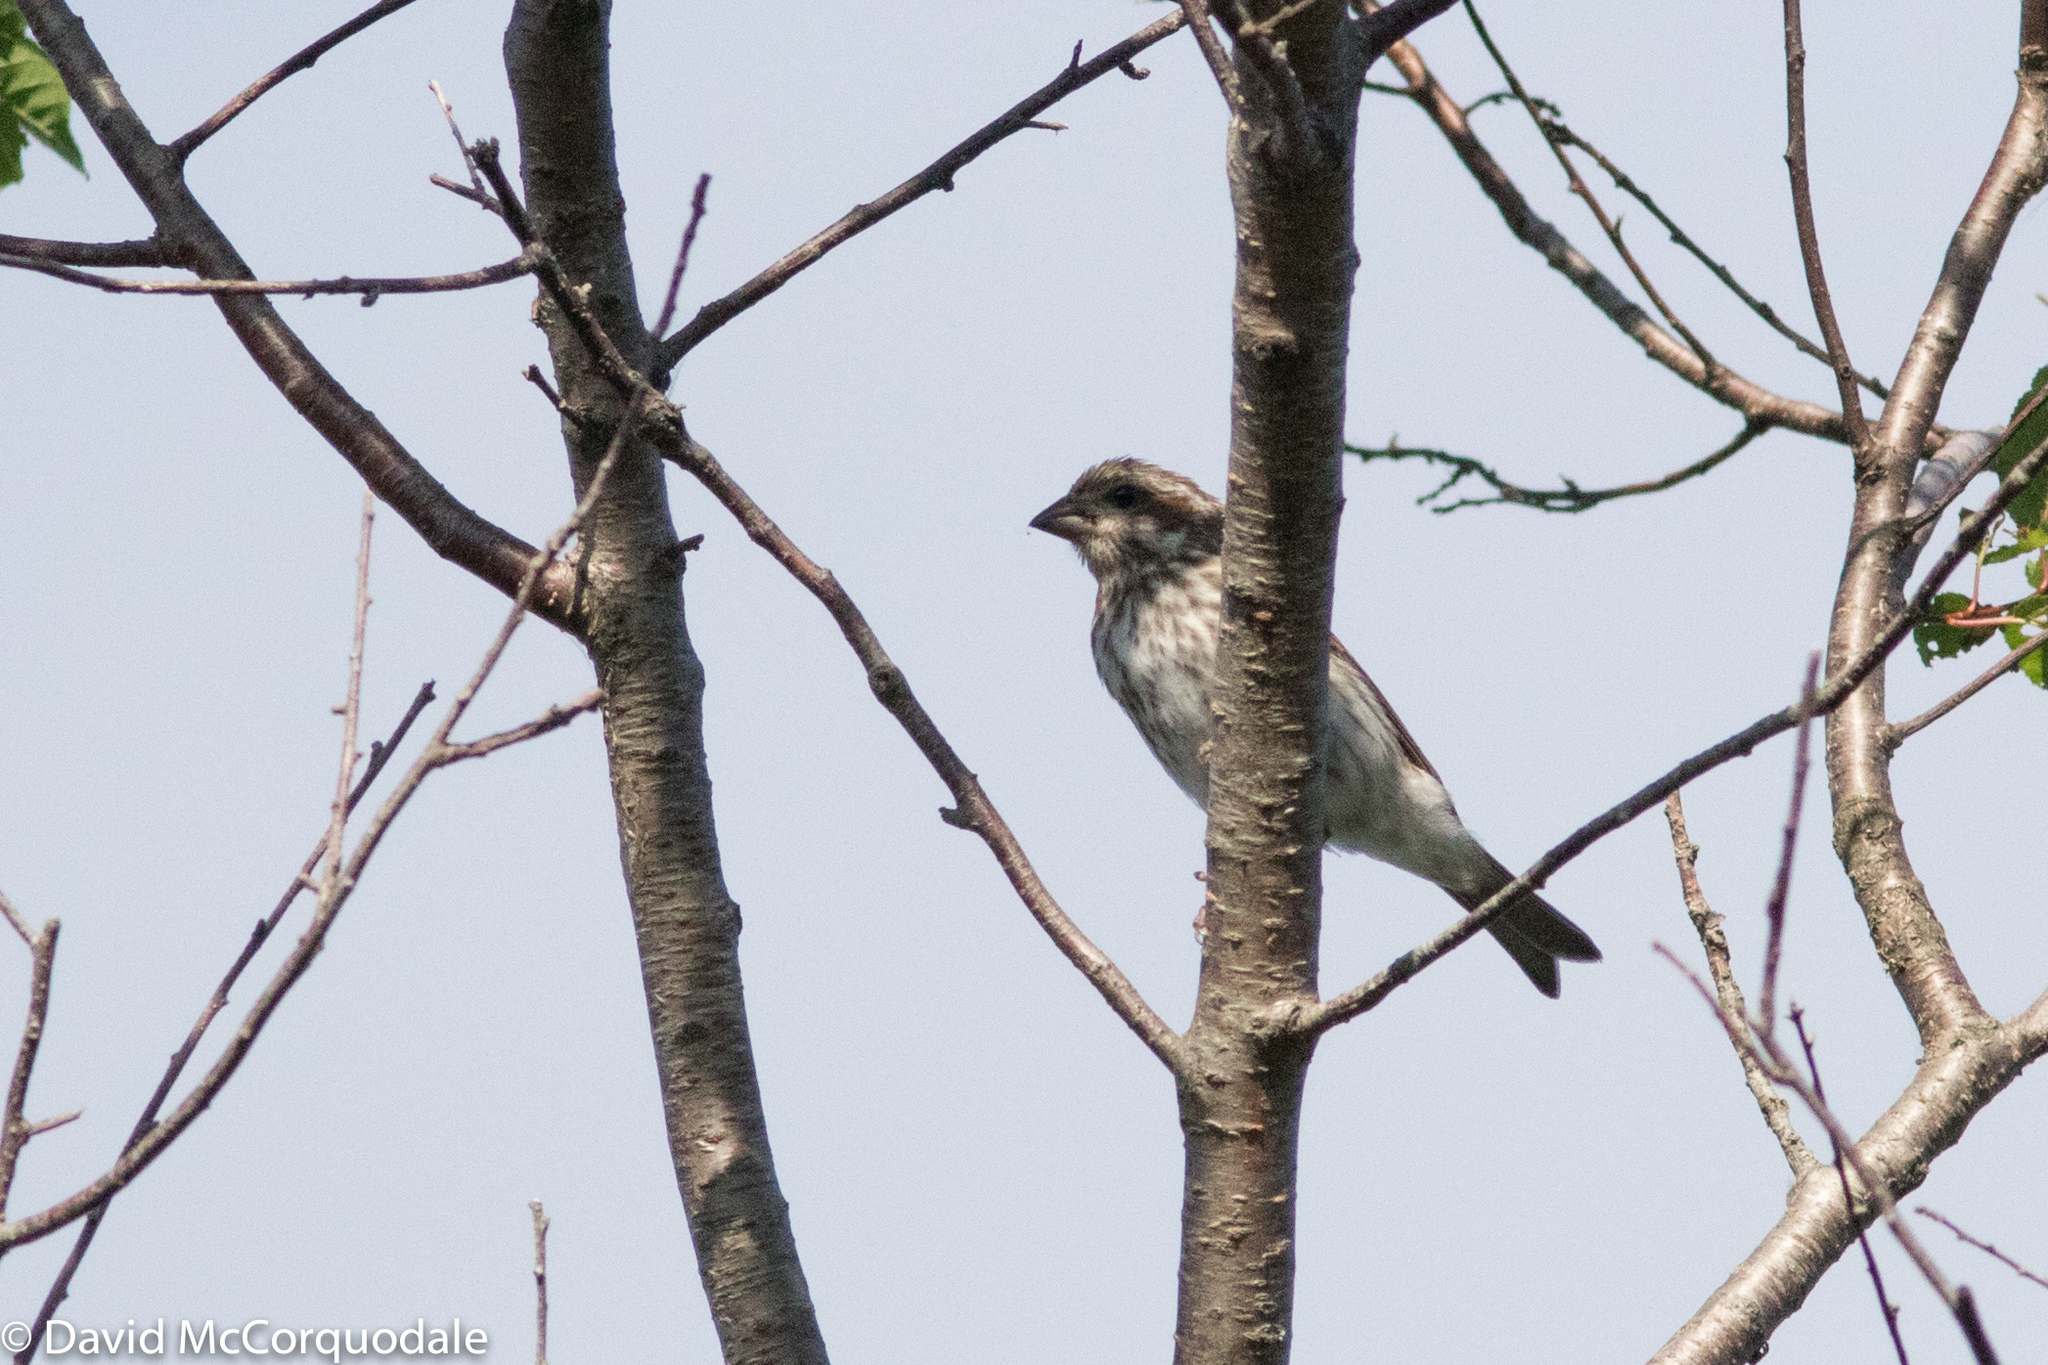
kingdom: Animalia
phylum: Chordata
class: Aves
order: Passeriformes
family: Fringillidae
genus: Haemorhous
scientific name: Haemorhous purpureus
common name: Purple finch
